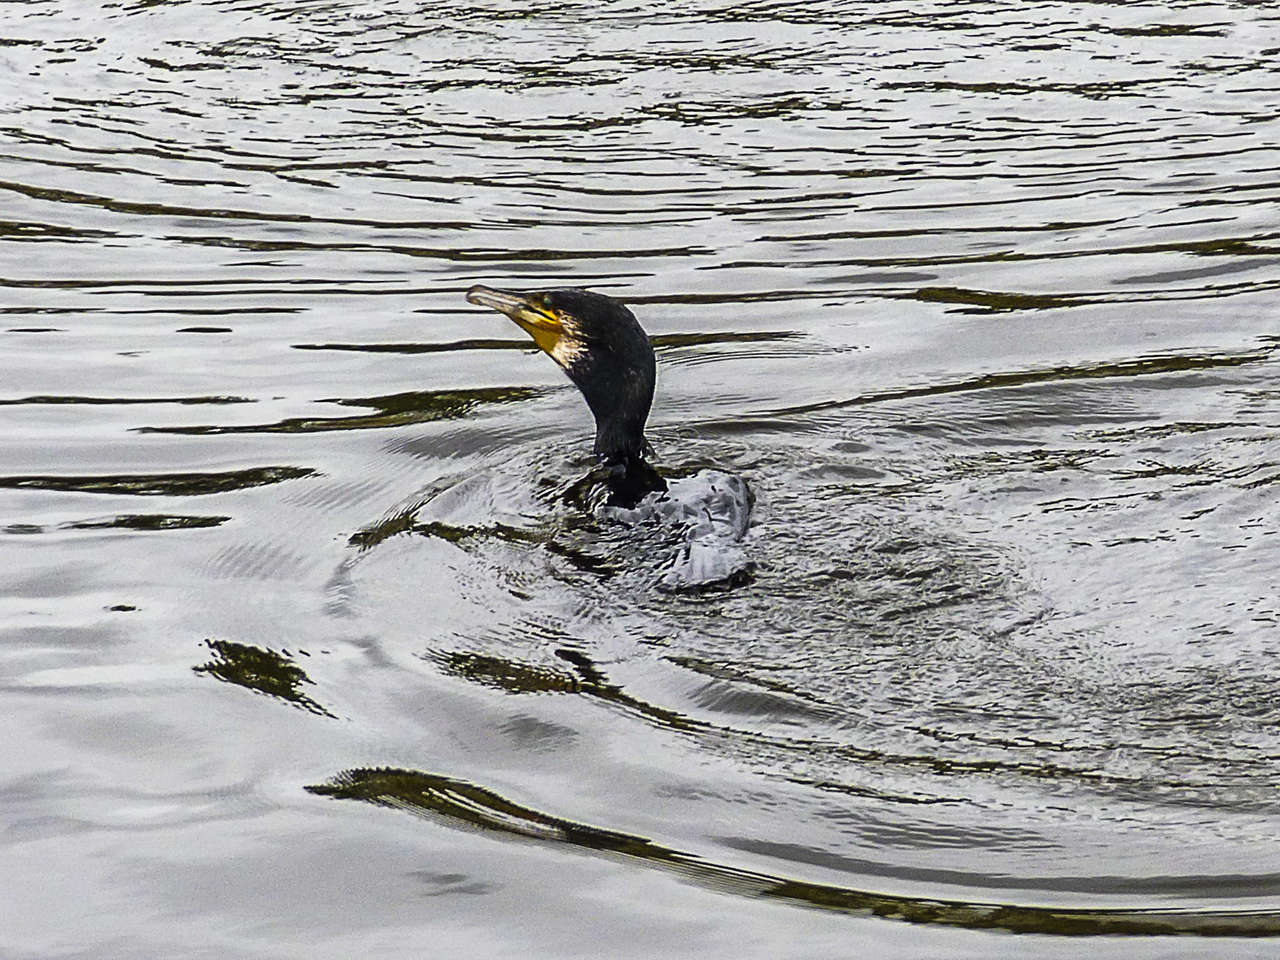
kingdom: Animalia
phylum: Chordata
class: Aves
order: Suliformes
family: Phalacrocoracidae
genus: Phalacrocorax
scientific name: Phalacrocorax carbo
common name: Great cormorant
